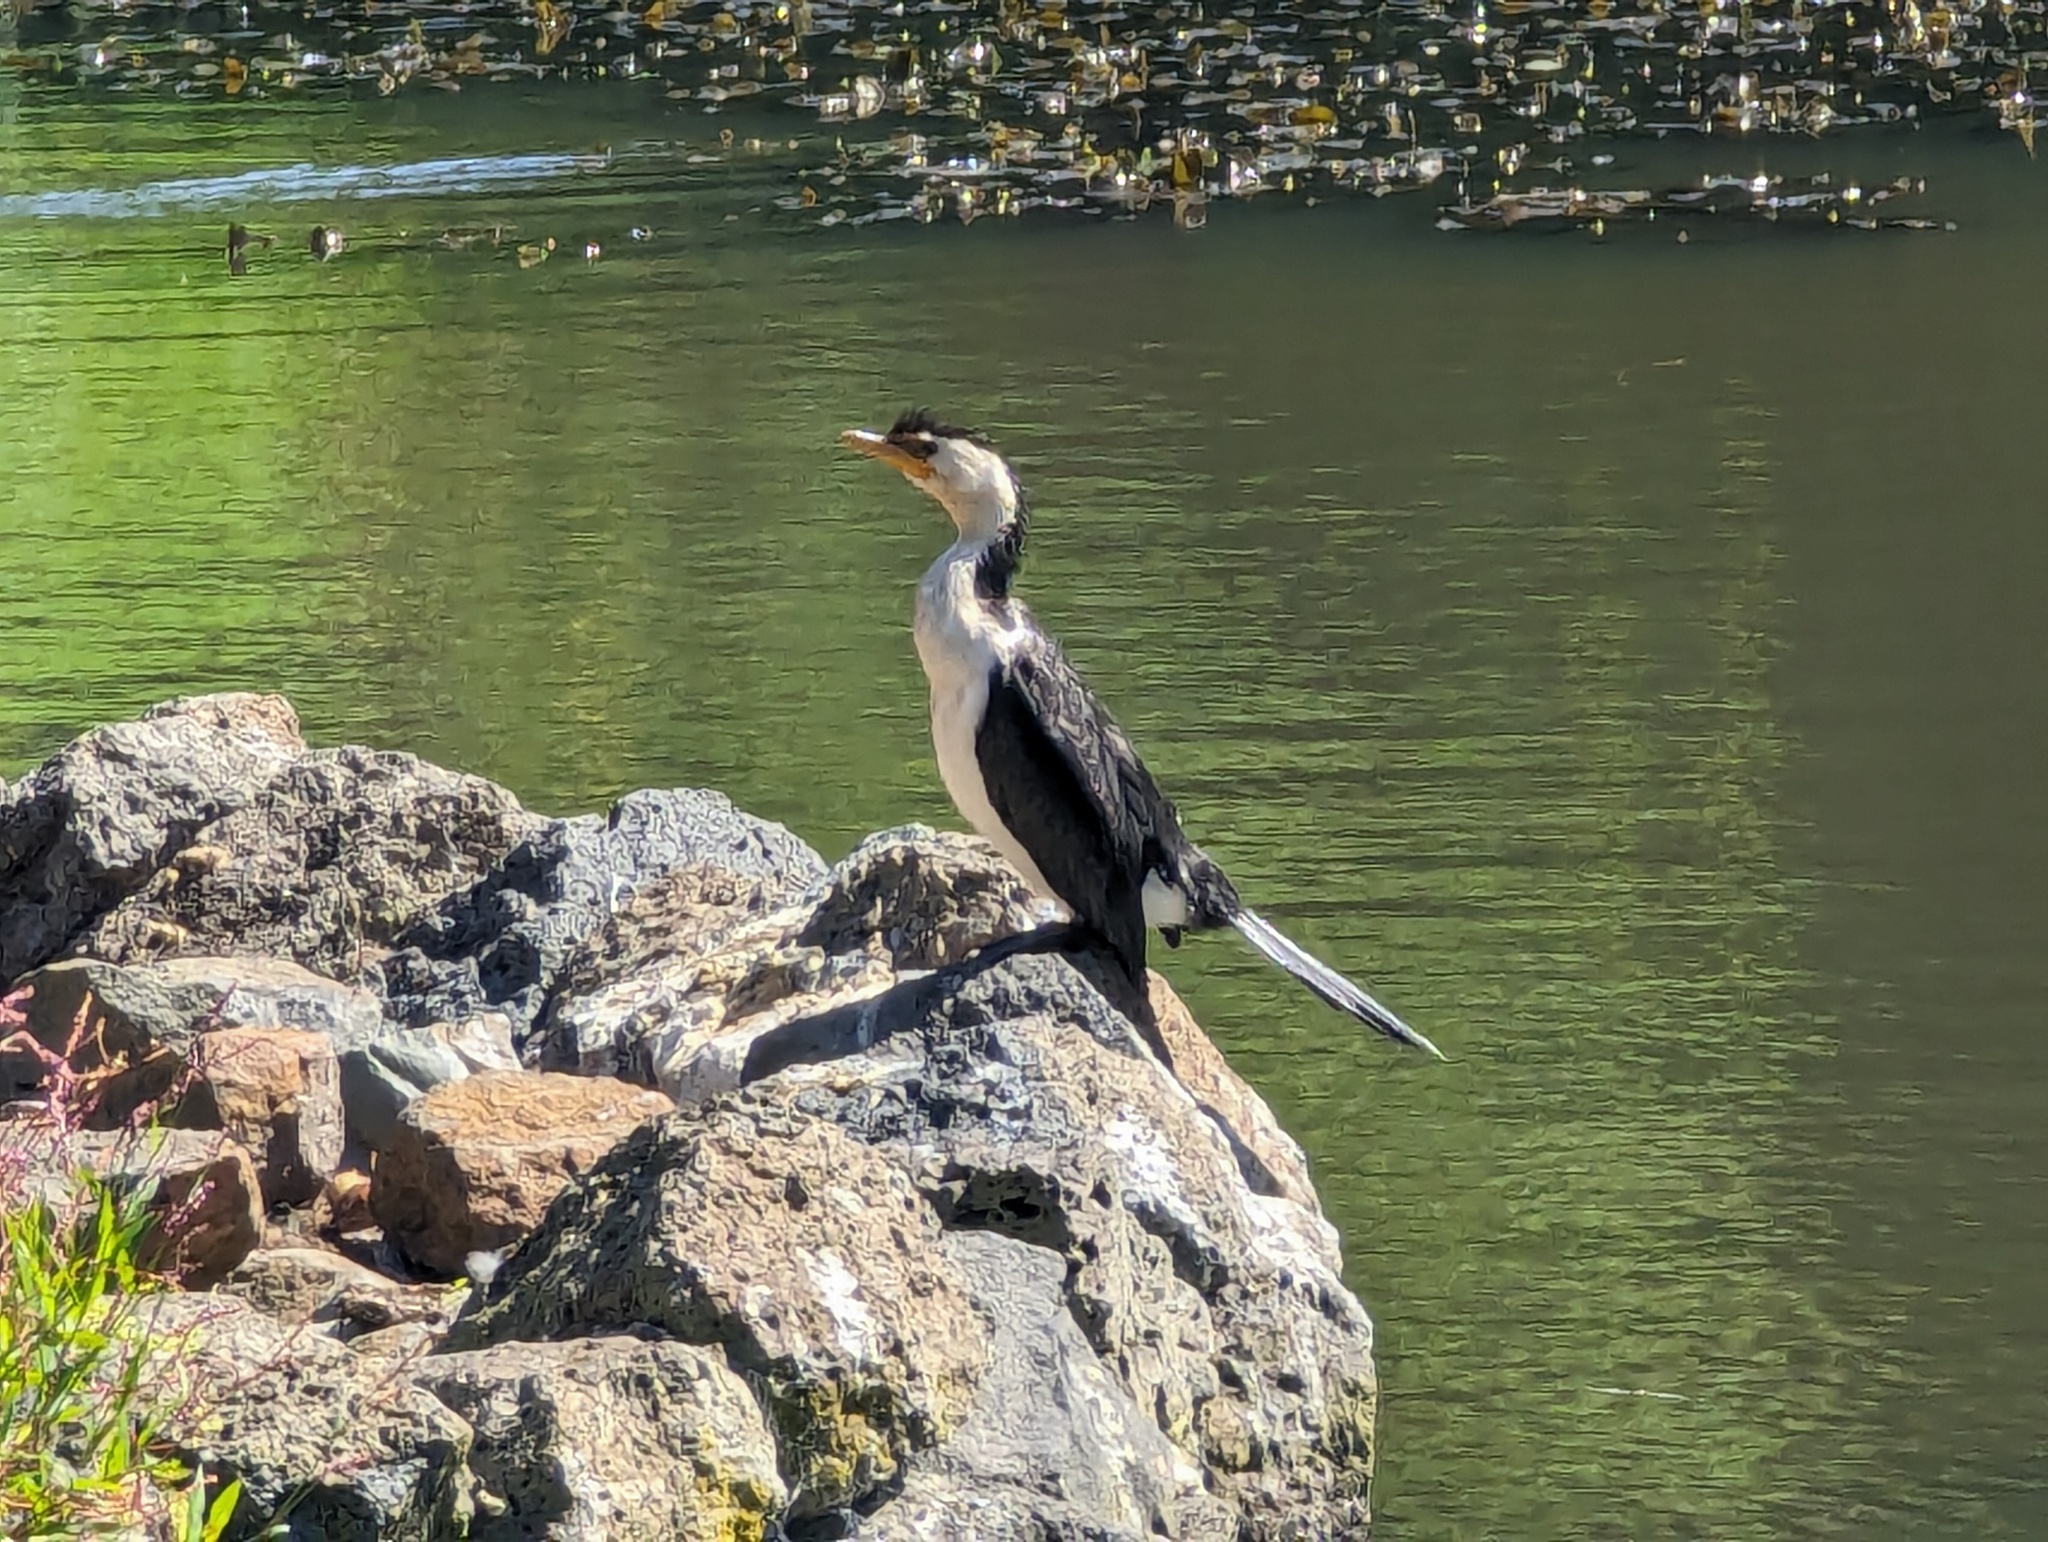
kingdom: Animalia
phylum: Chordata
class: Aves
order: Suliformes
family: Phalacrocoracidae
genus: Microcarbo
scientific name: Microcarbo melanoleucos
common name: Little pied cormorant
